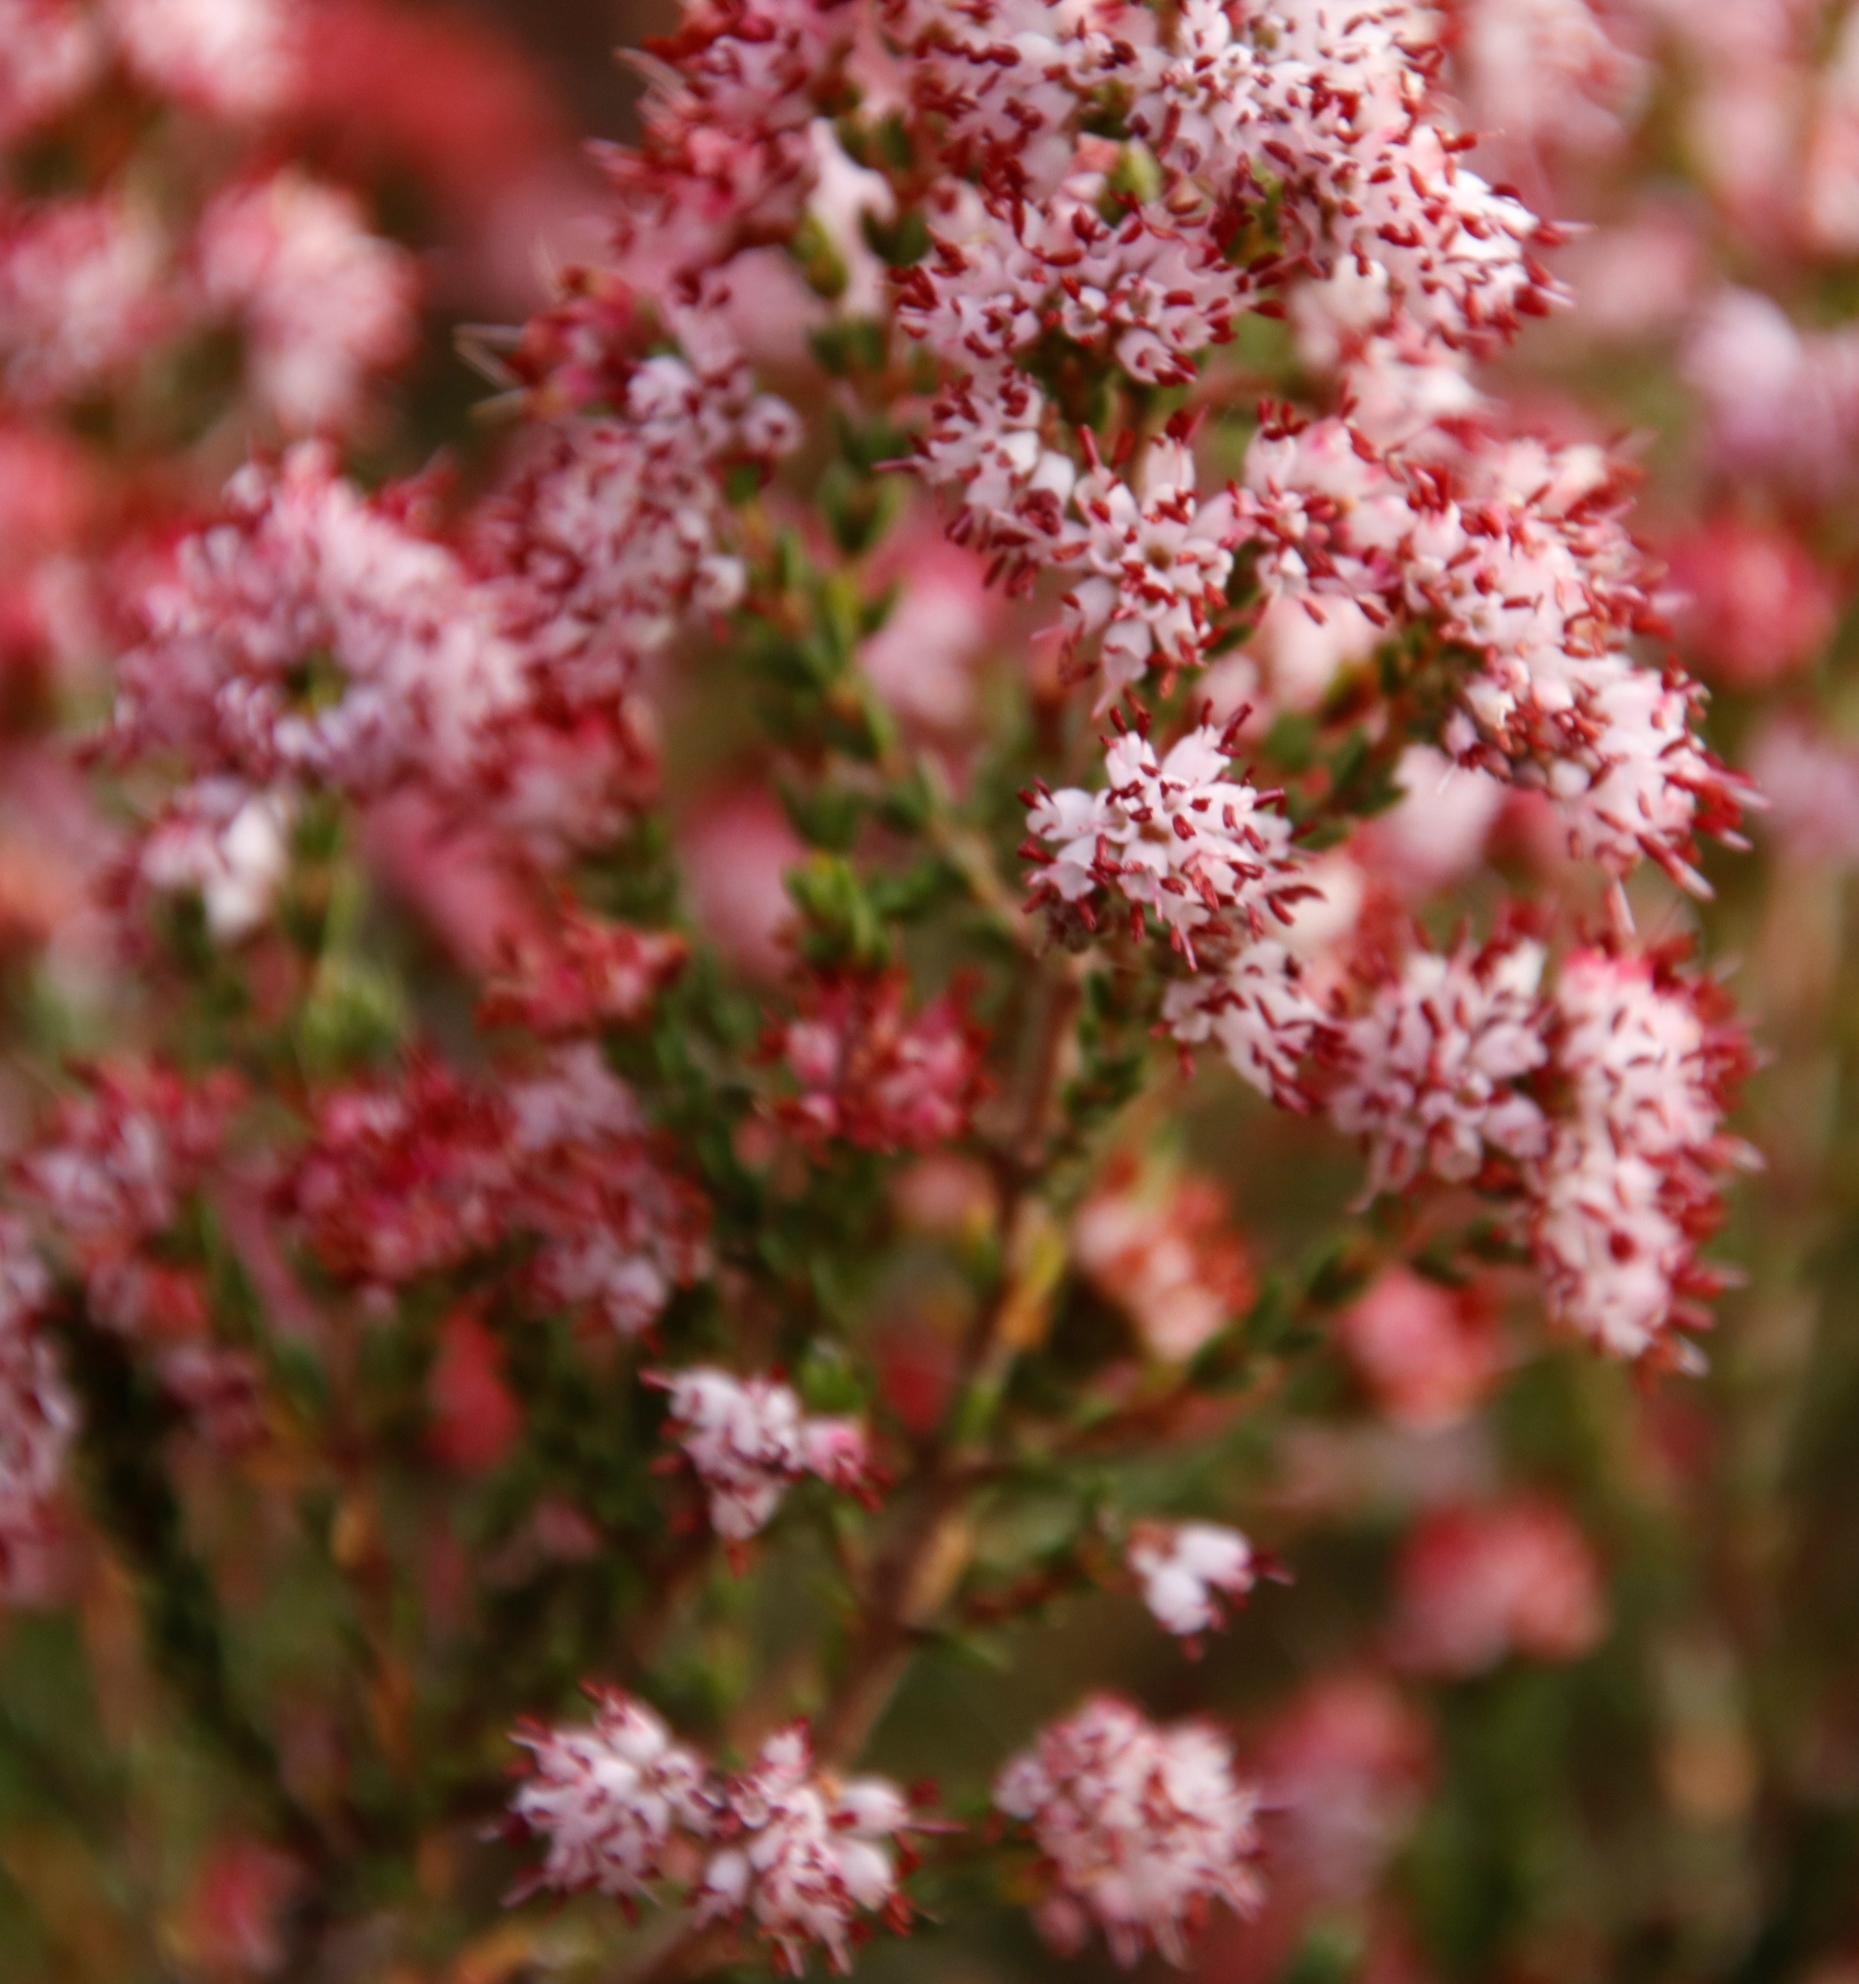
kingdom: Plantae
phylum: Tracheophyta
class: Magnoliopsida
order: Ericales
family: Ericaceae
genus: Erica
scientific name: Erica ericoides
